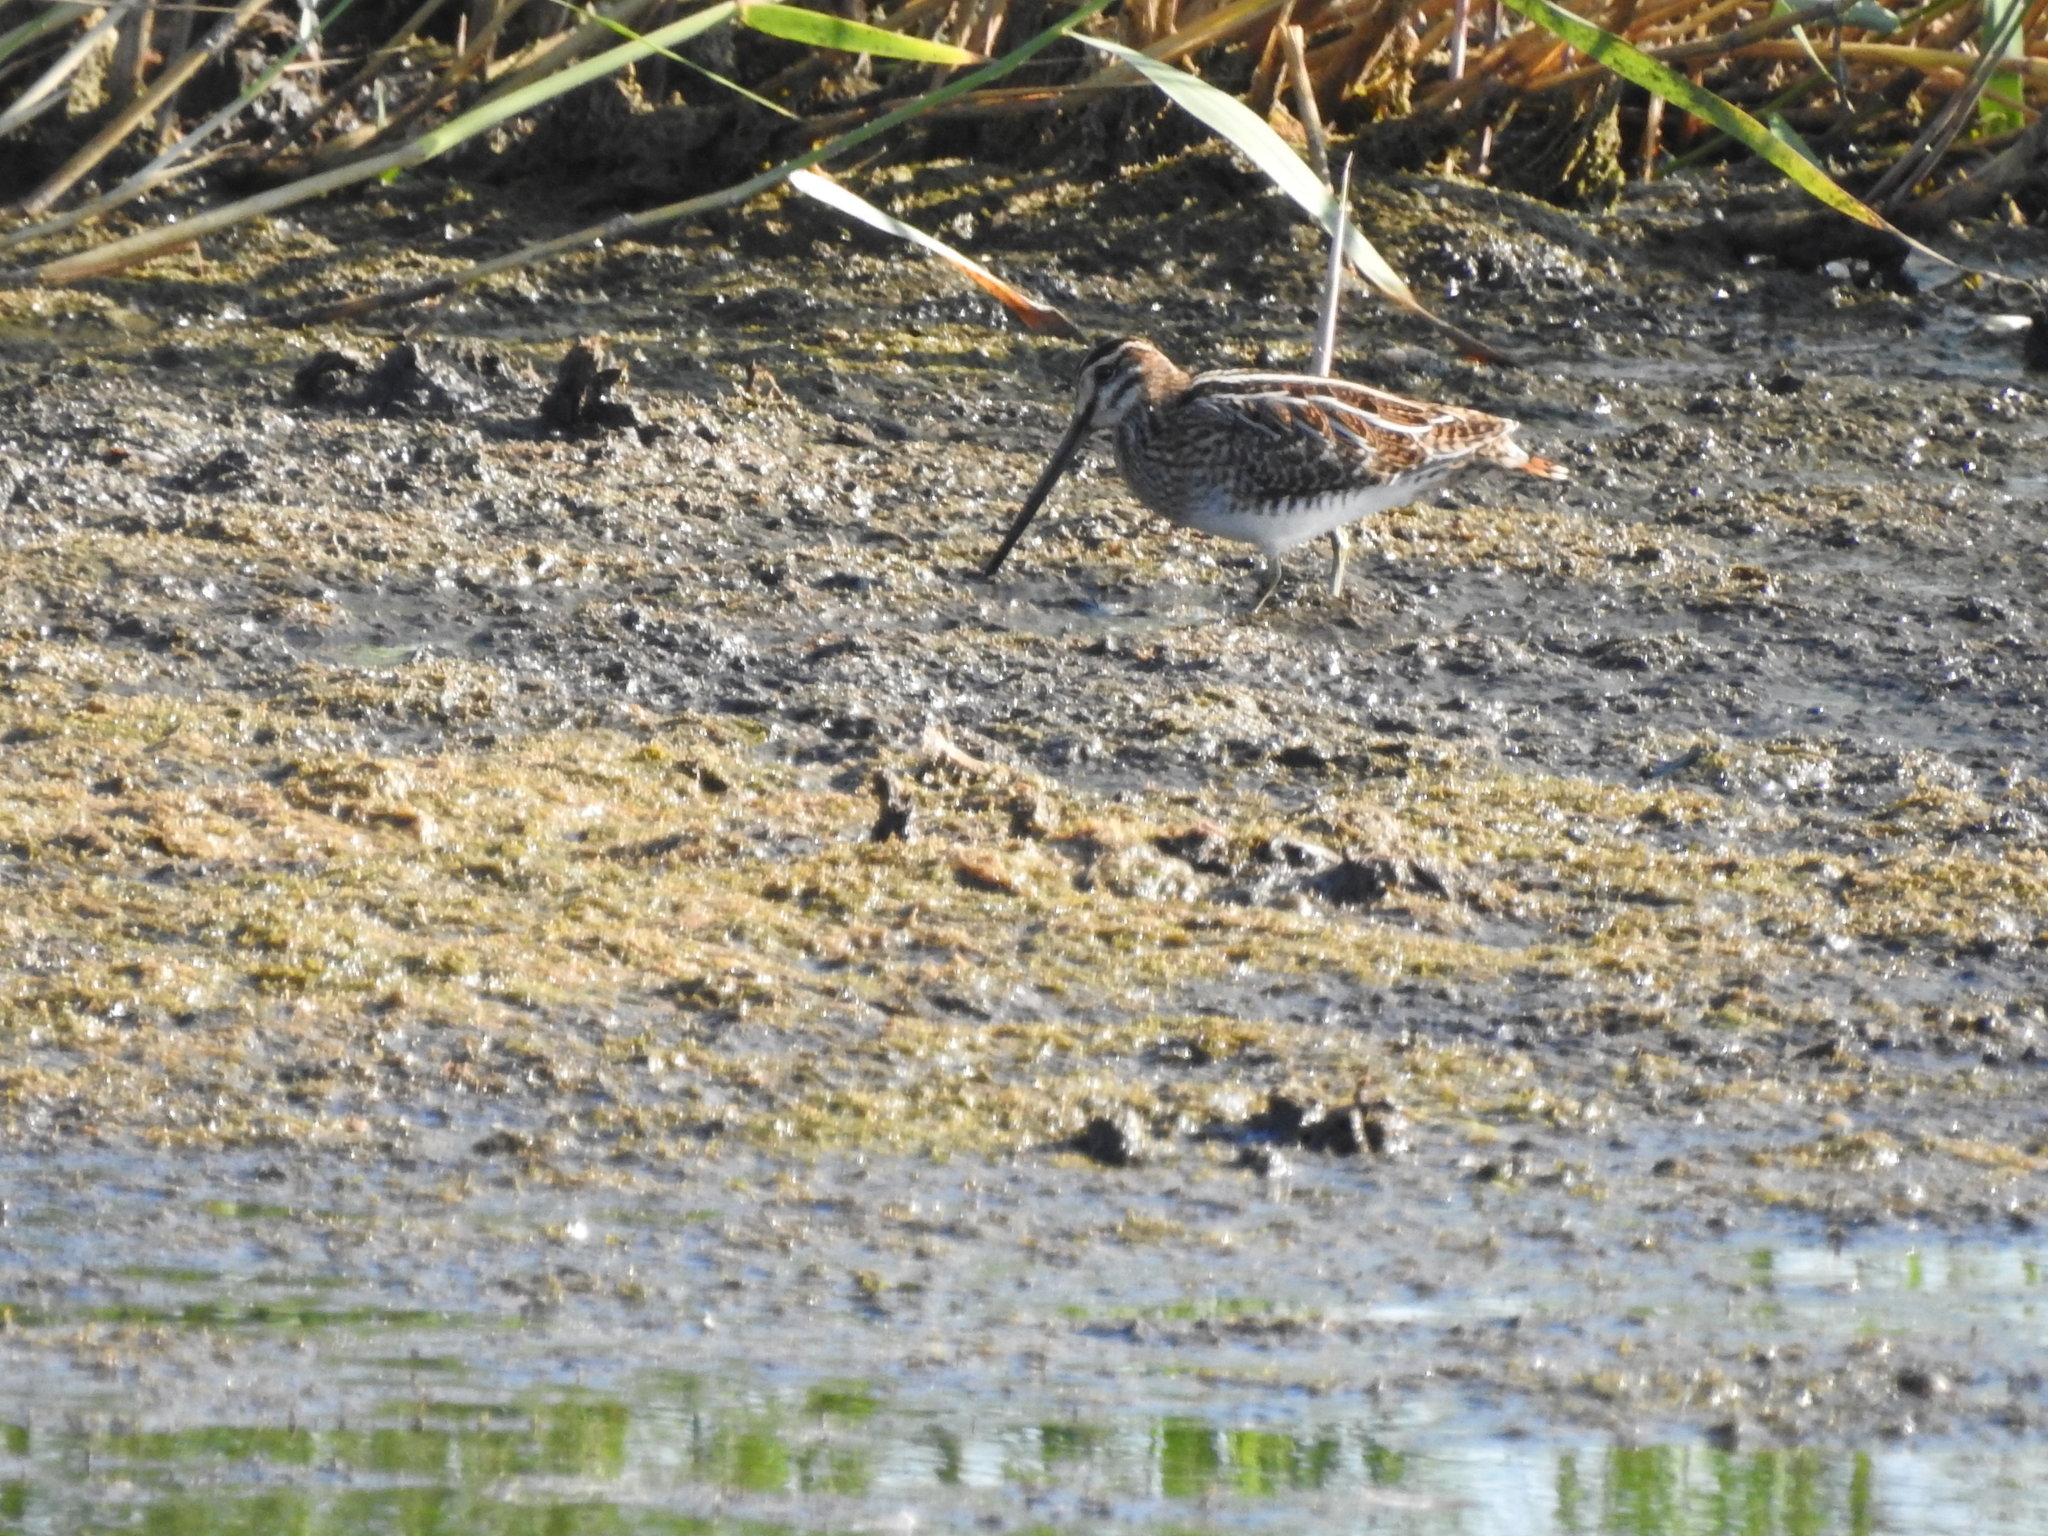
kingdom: Animalia
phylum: Chordata
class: Aves
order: Charadriiformes
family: Scolopacidae
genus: Gallinago
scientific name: Gallinago gallinago
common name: Common snipe
